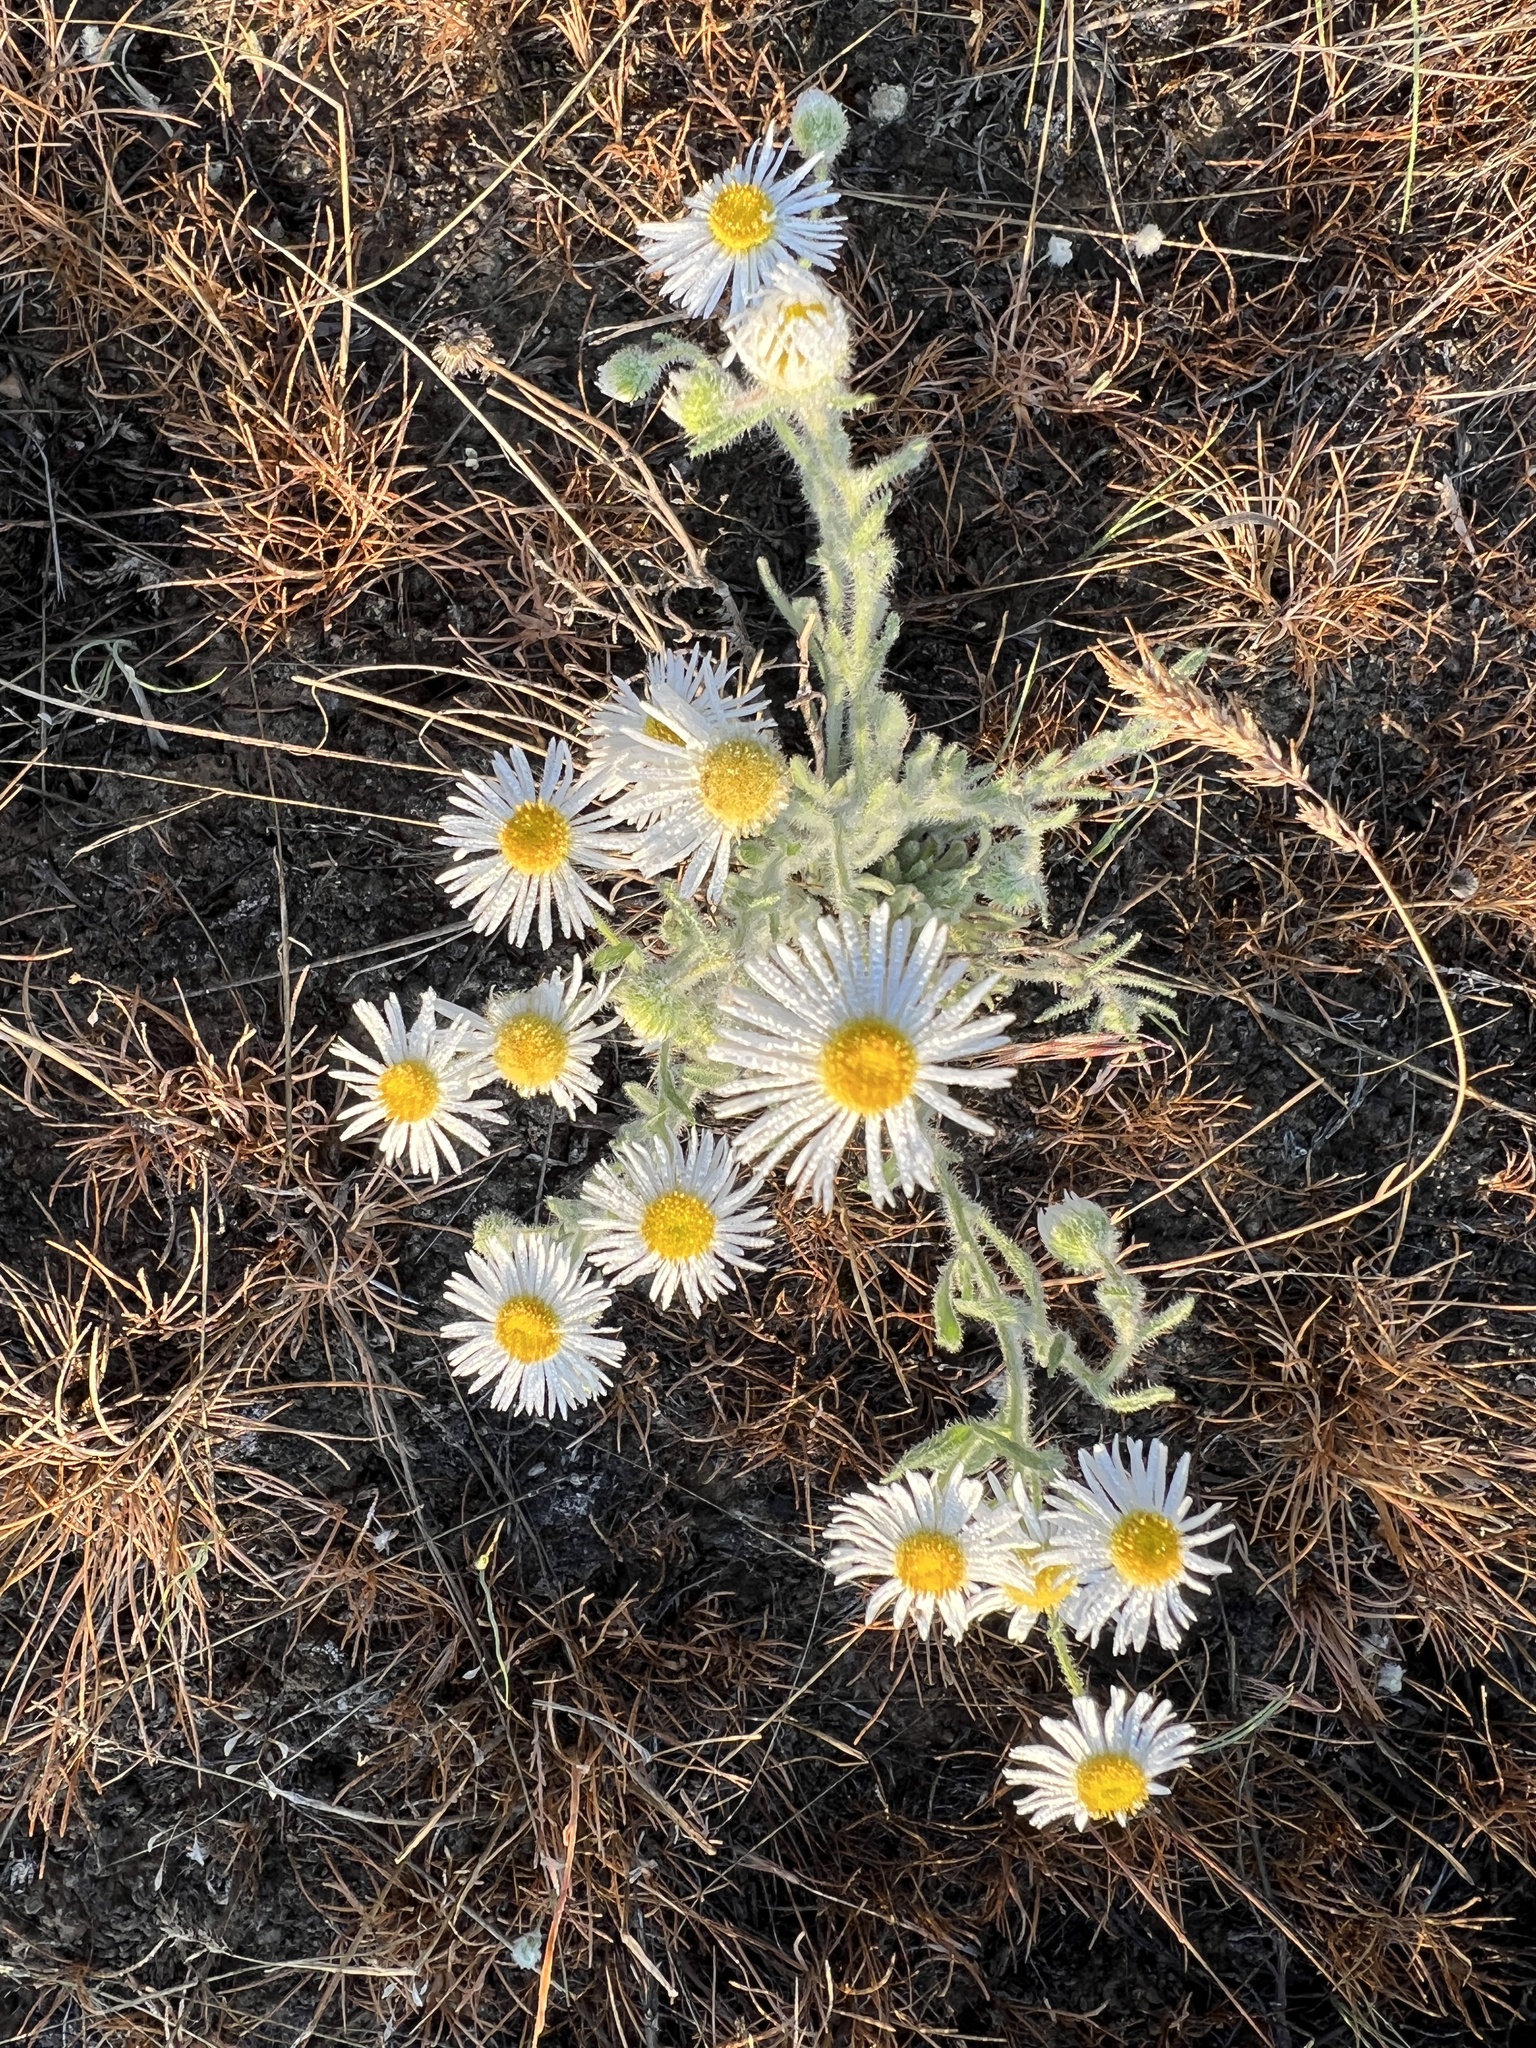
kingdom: Plantae
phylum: Tracheophyta
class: Magnoliopsida
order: Asterales
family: Asteraceae
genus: Erigeron
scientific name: Erigeron pumilus
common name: Shaggy fleabane
